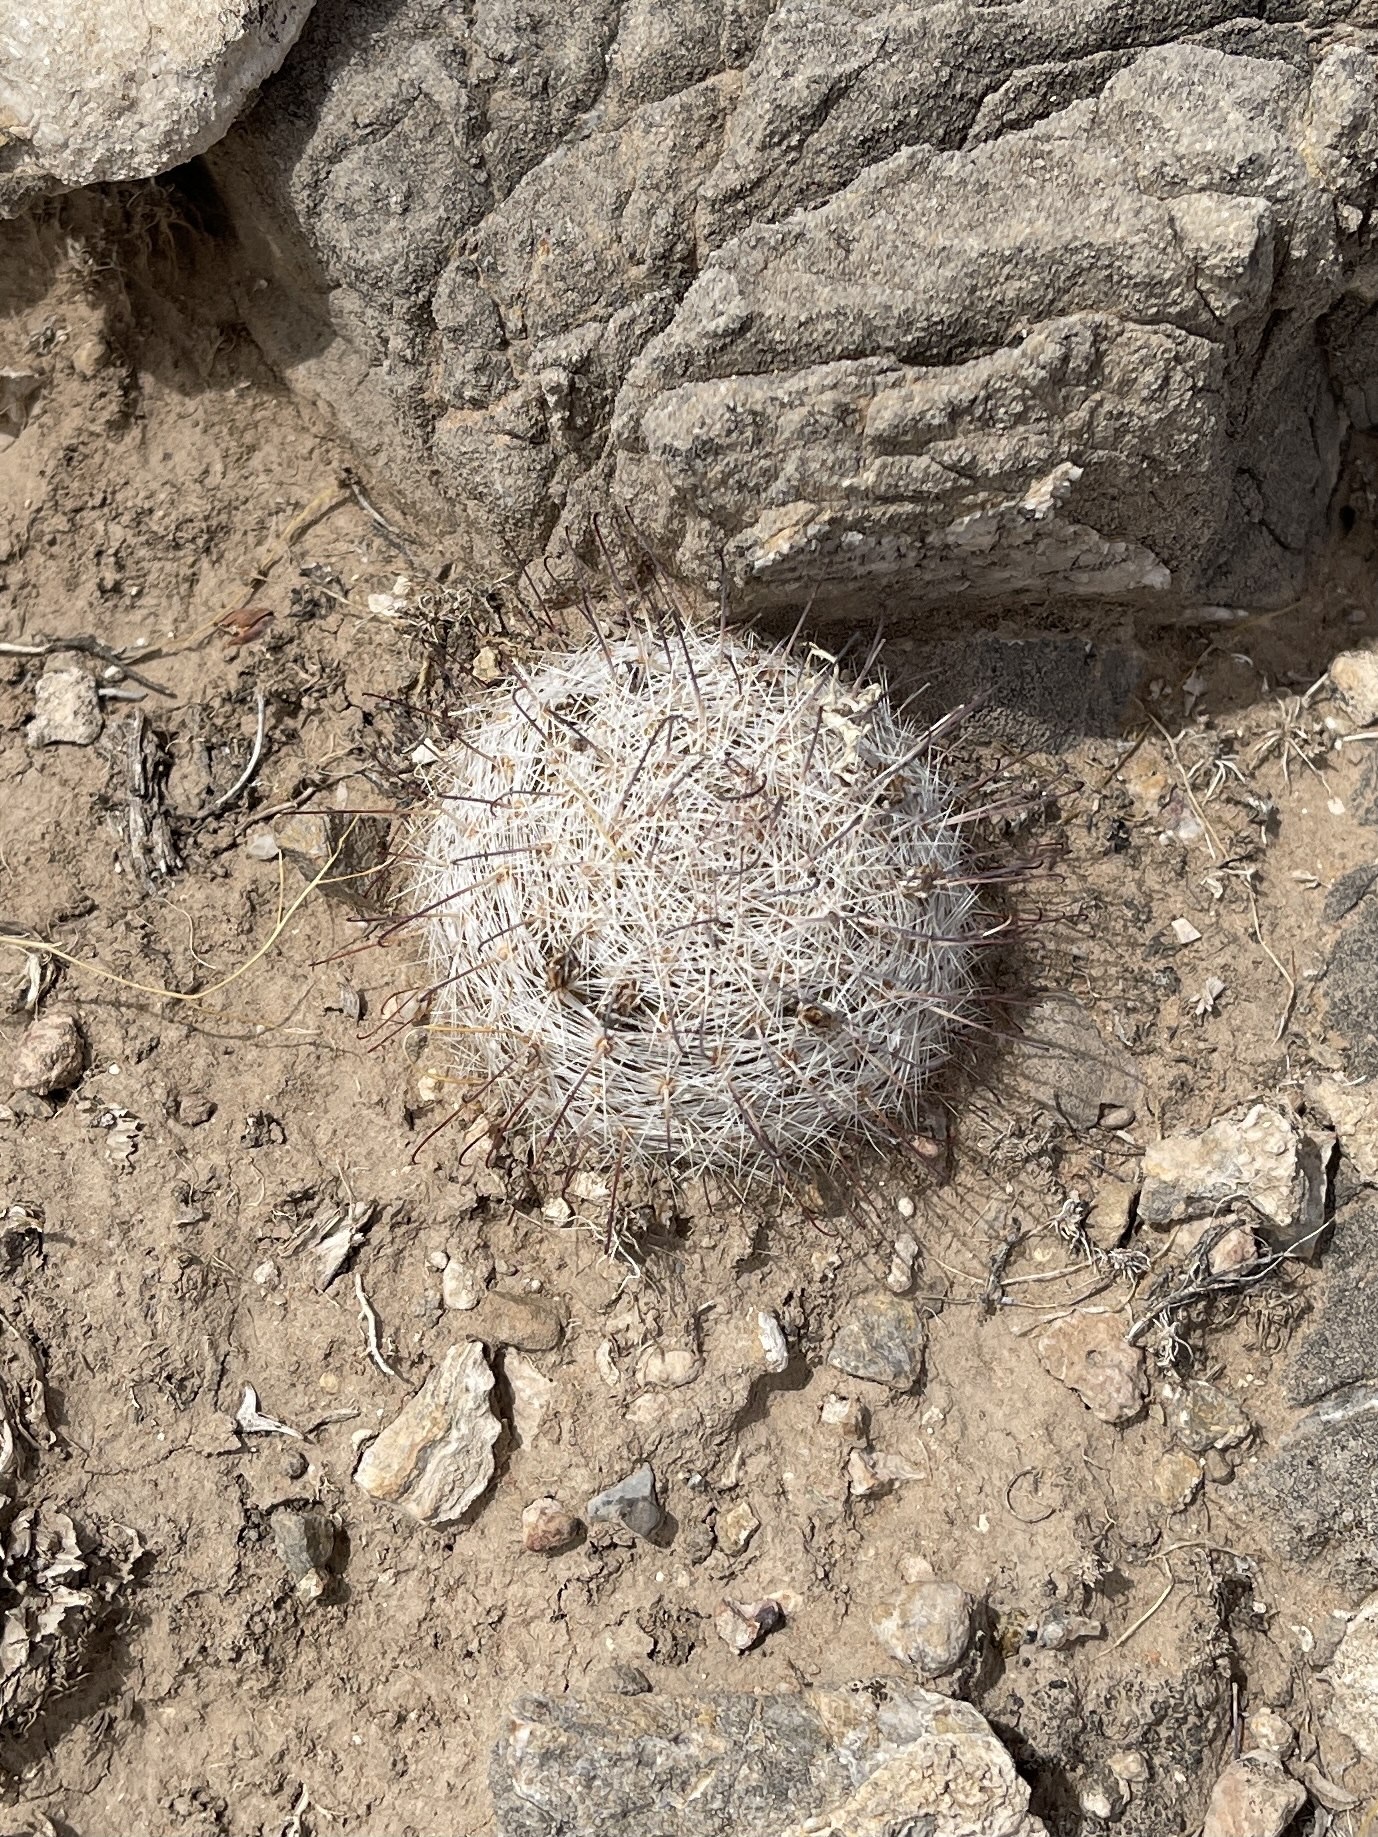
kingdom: Plantae
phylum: Tracheophyta
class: Magnoliopsida
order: Caryophyllales
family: Cactaceae
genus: Cochemiea
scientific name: Cochemiea grahamii
